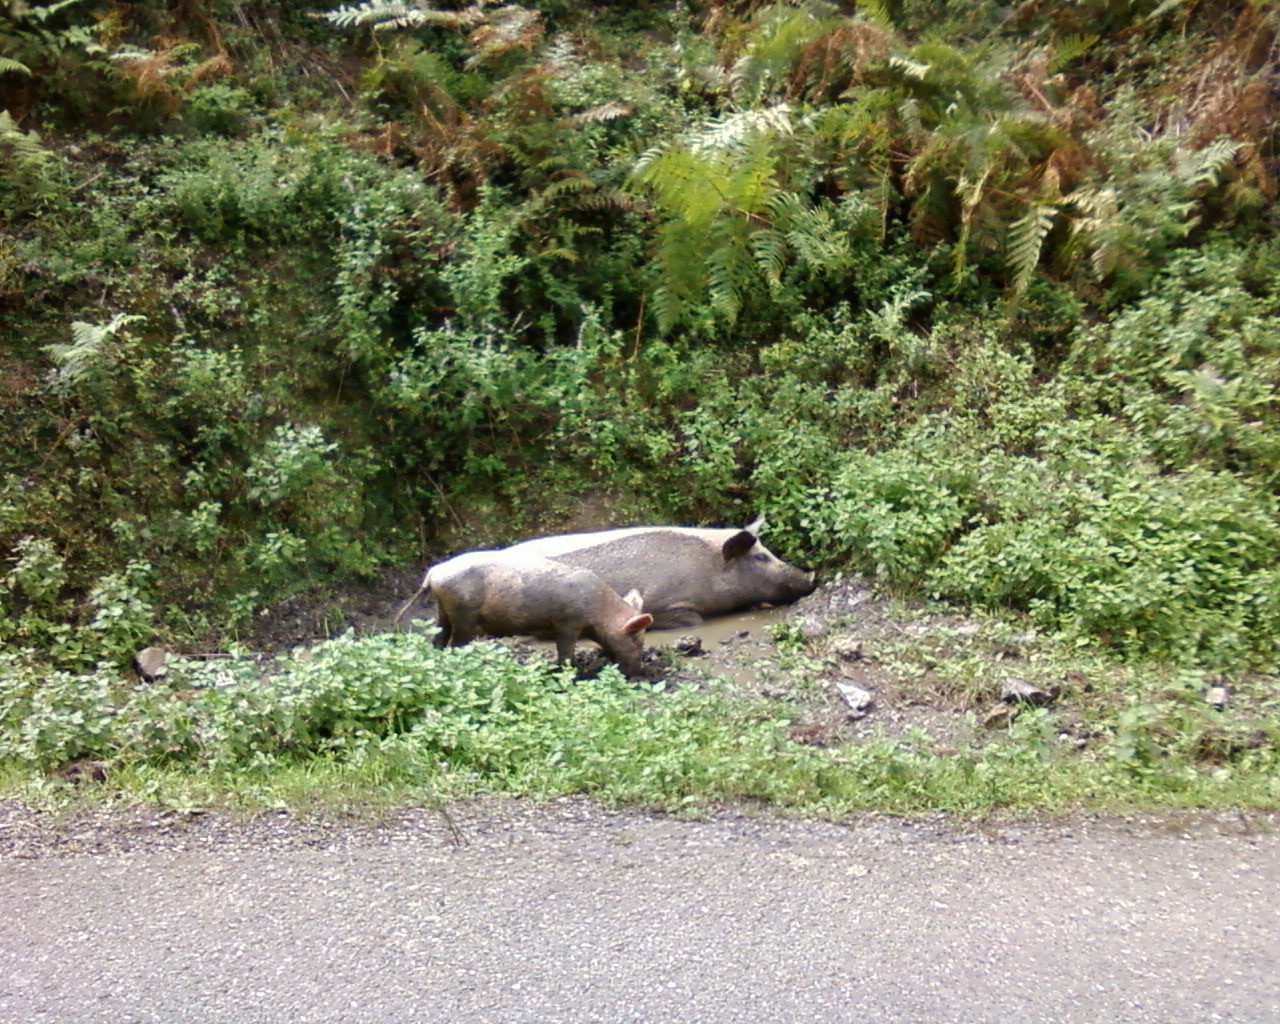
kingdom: Animalia
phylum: Chordata
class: Mammalia
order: Artiodactyla
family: Suidae
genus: Sus
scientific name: Sus scrofa
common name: Wild boar
